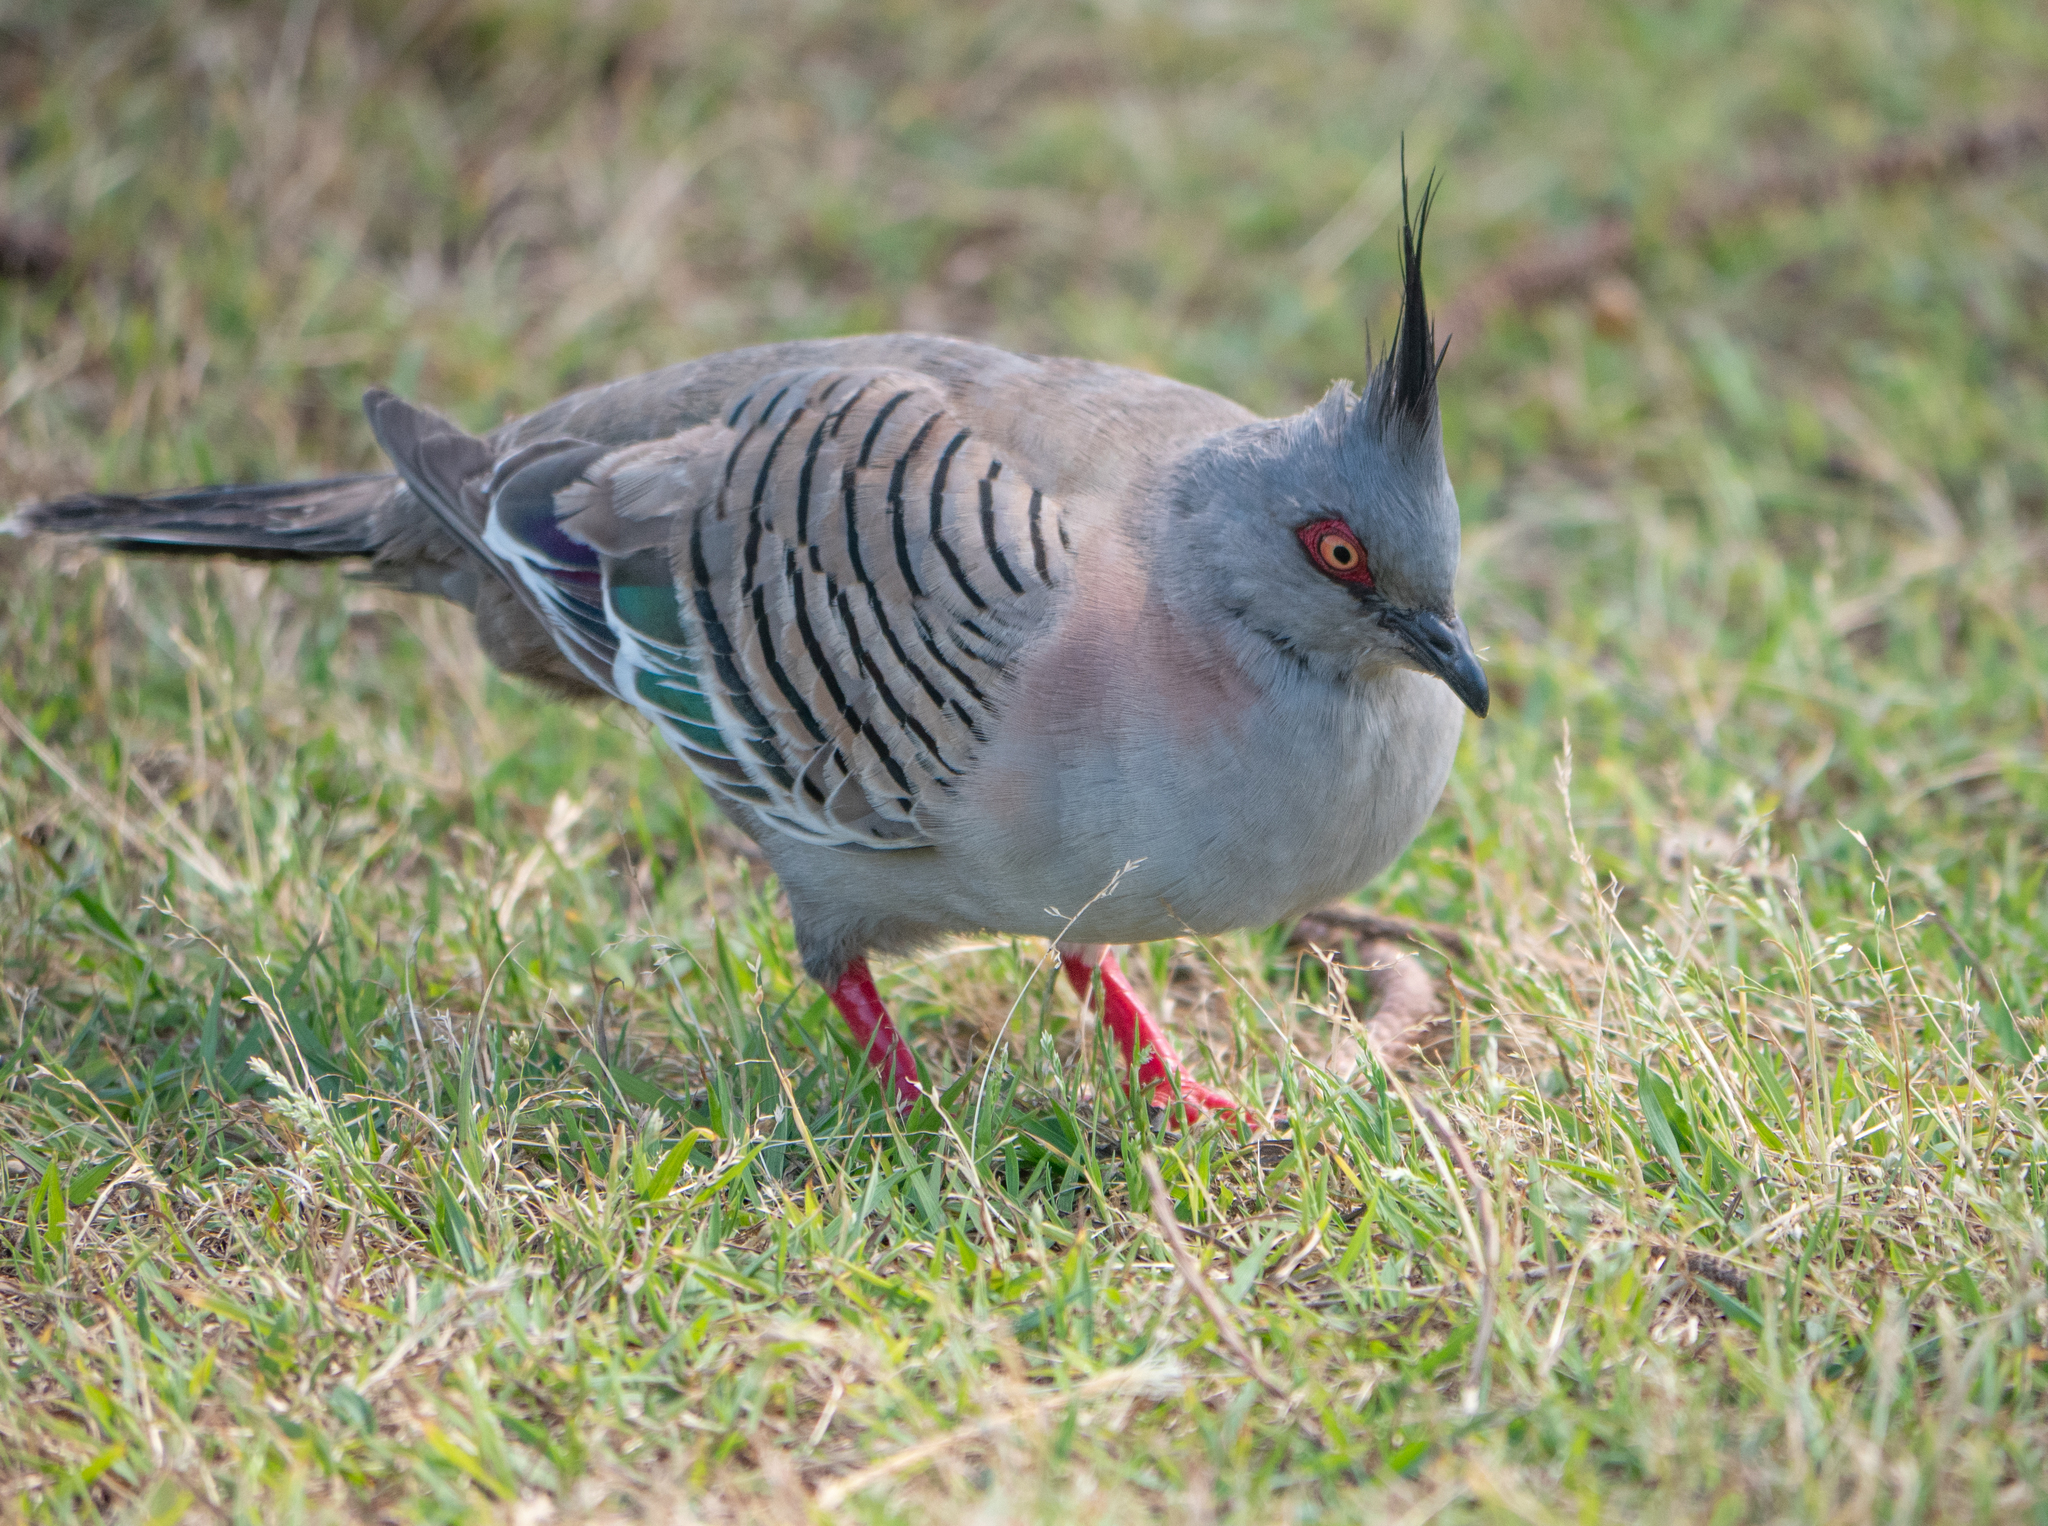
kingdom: Animalia
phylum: Chordata
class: Aves
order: Columbiformes
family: Columbidae
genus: Ocyphaps
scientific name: Ocyphaps lophotes
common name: Crested pigeon
